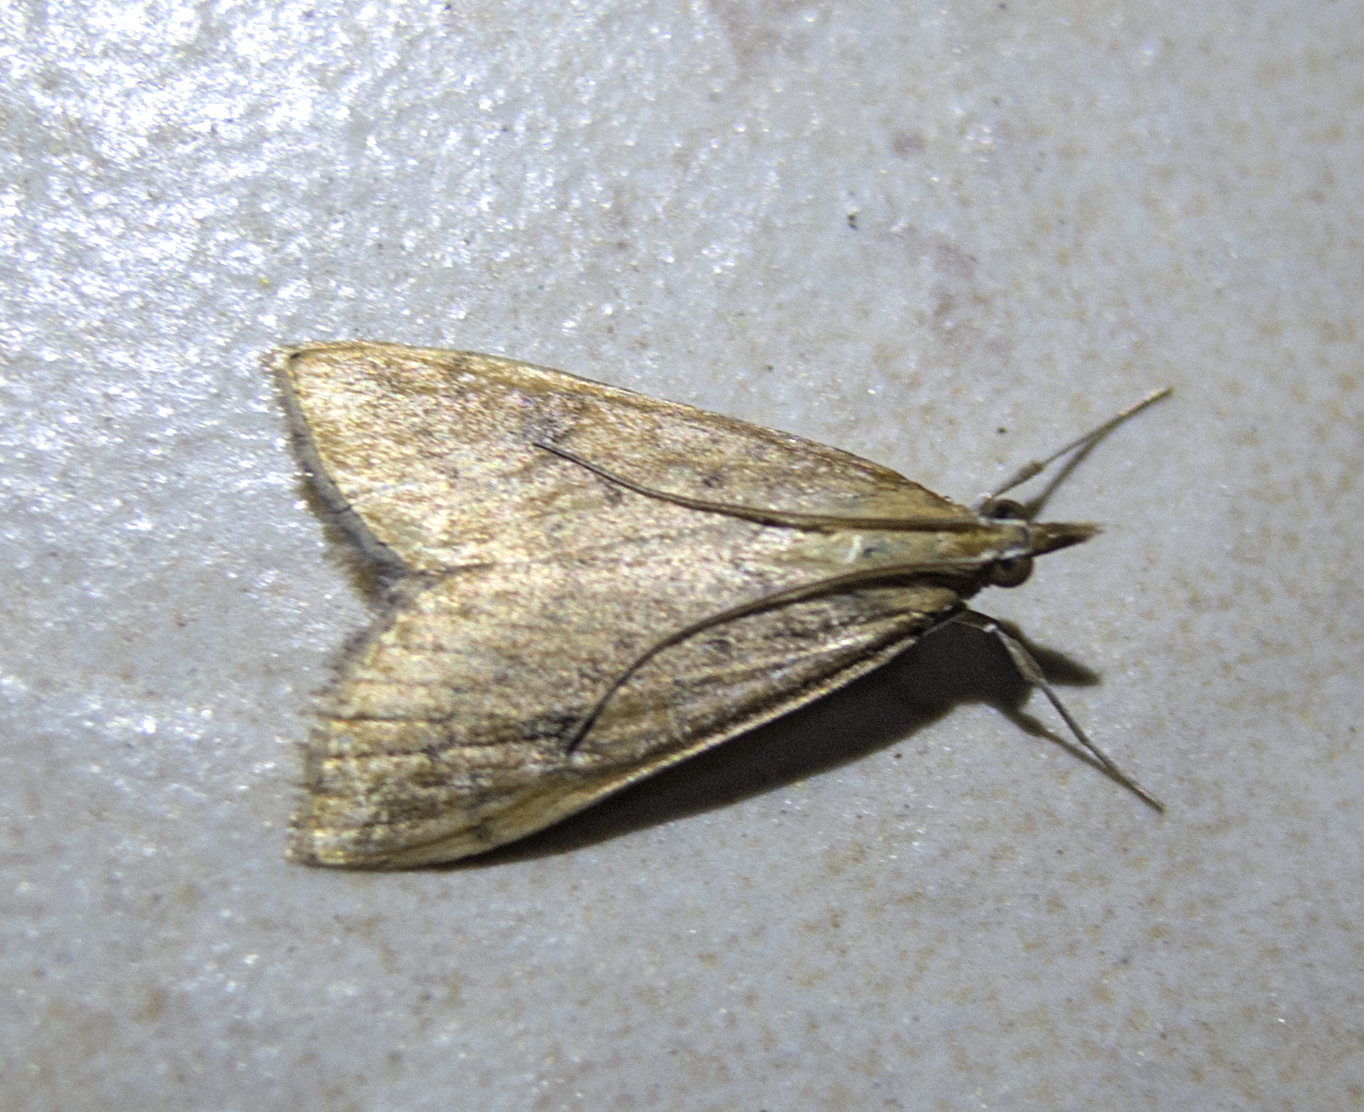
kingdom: Animalia
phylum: Arthropoda
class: Insecta
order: Lepidoptera
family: Crambidae
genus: Udea
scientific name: Udea ferrugalis
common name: Rusty dot
